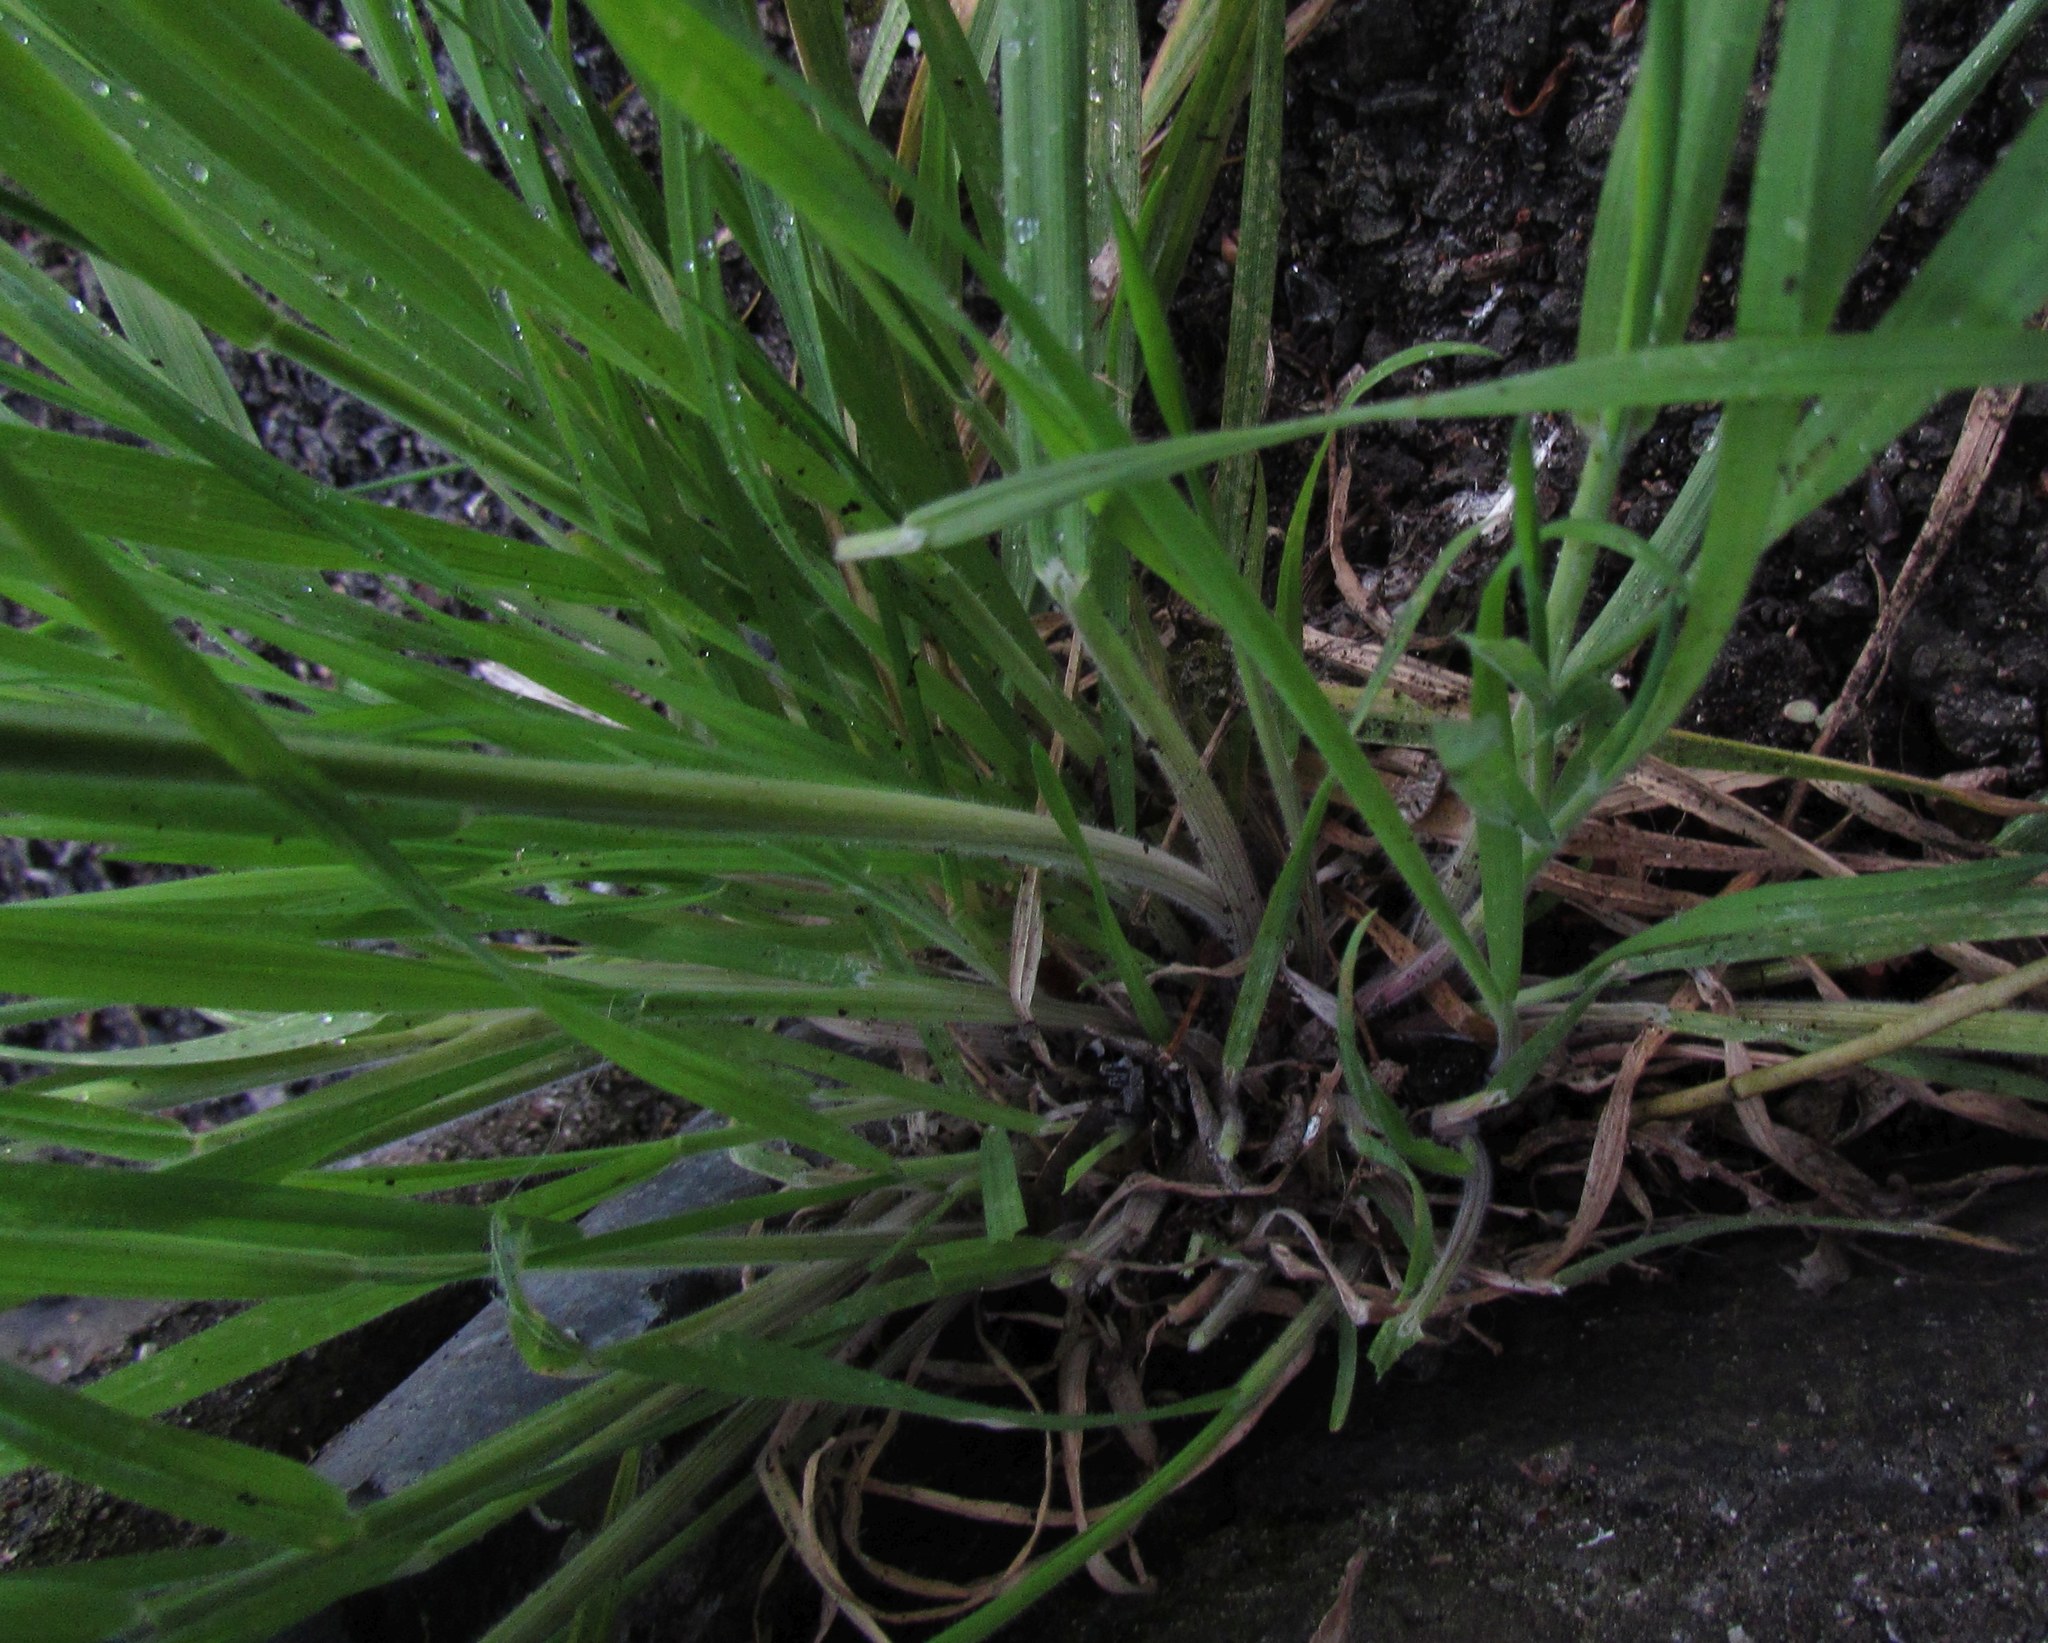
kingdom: Plantae
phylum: Tracheophyta
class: Liliopsida
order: Poales
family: Poaceae
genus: Holcus
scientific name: Holcus lanatus
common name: Yorkshire-fog
